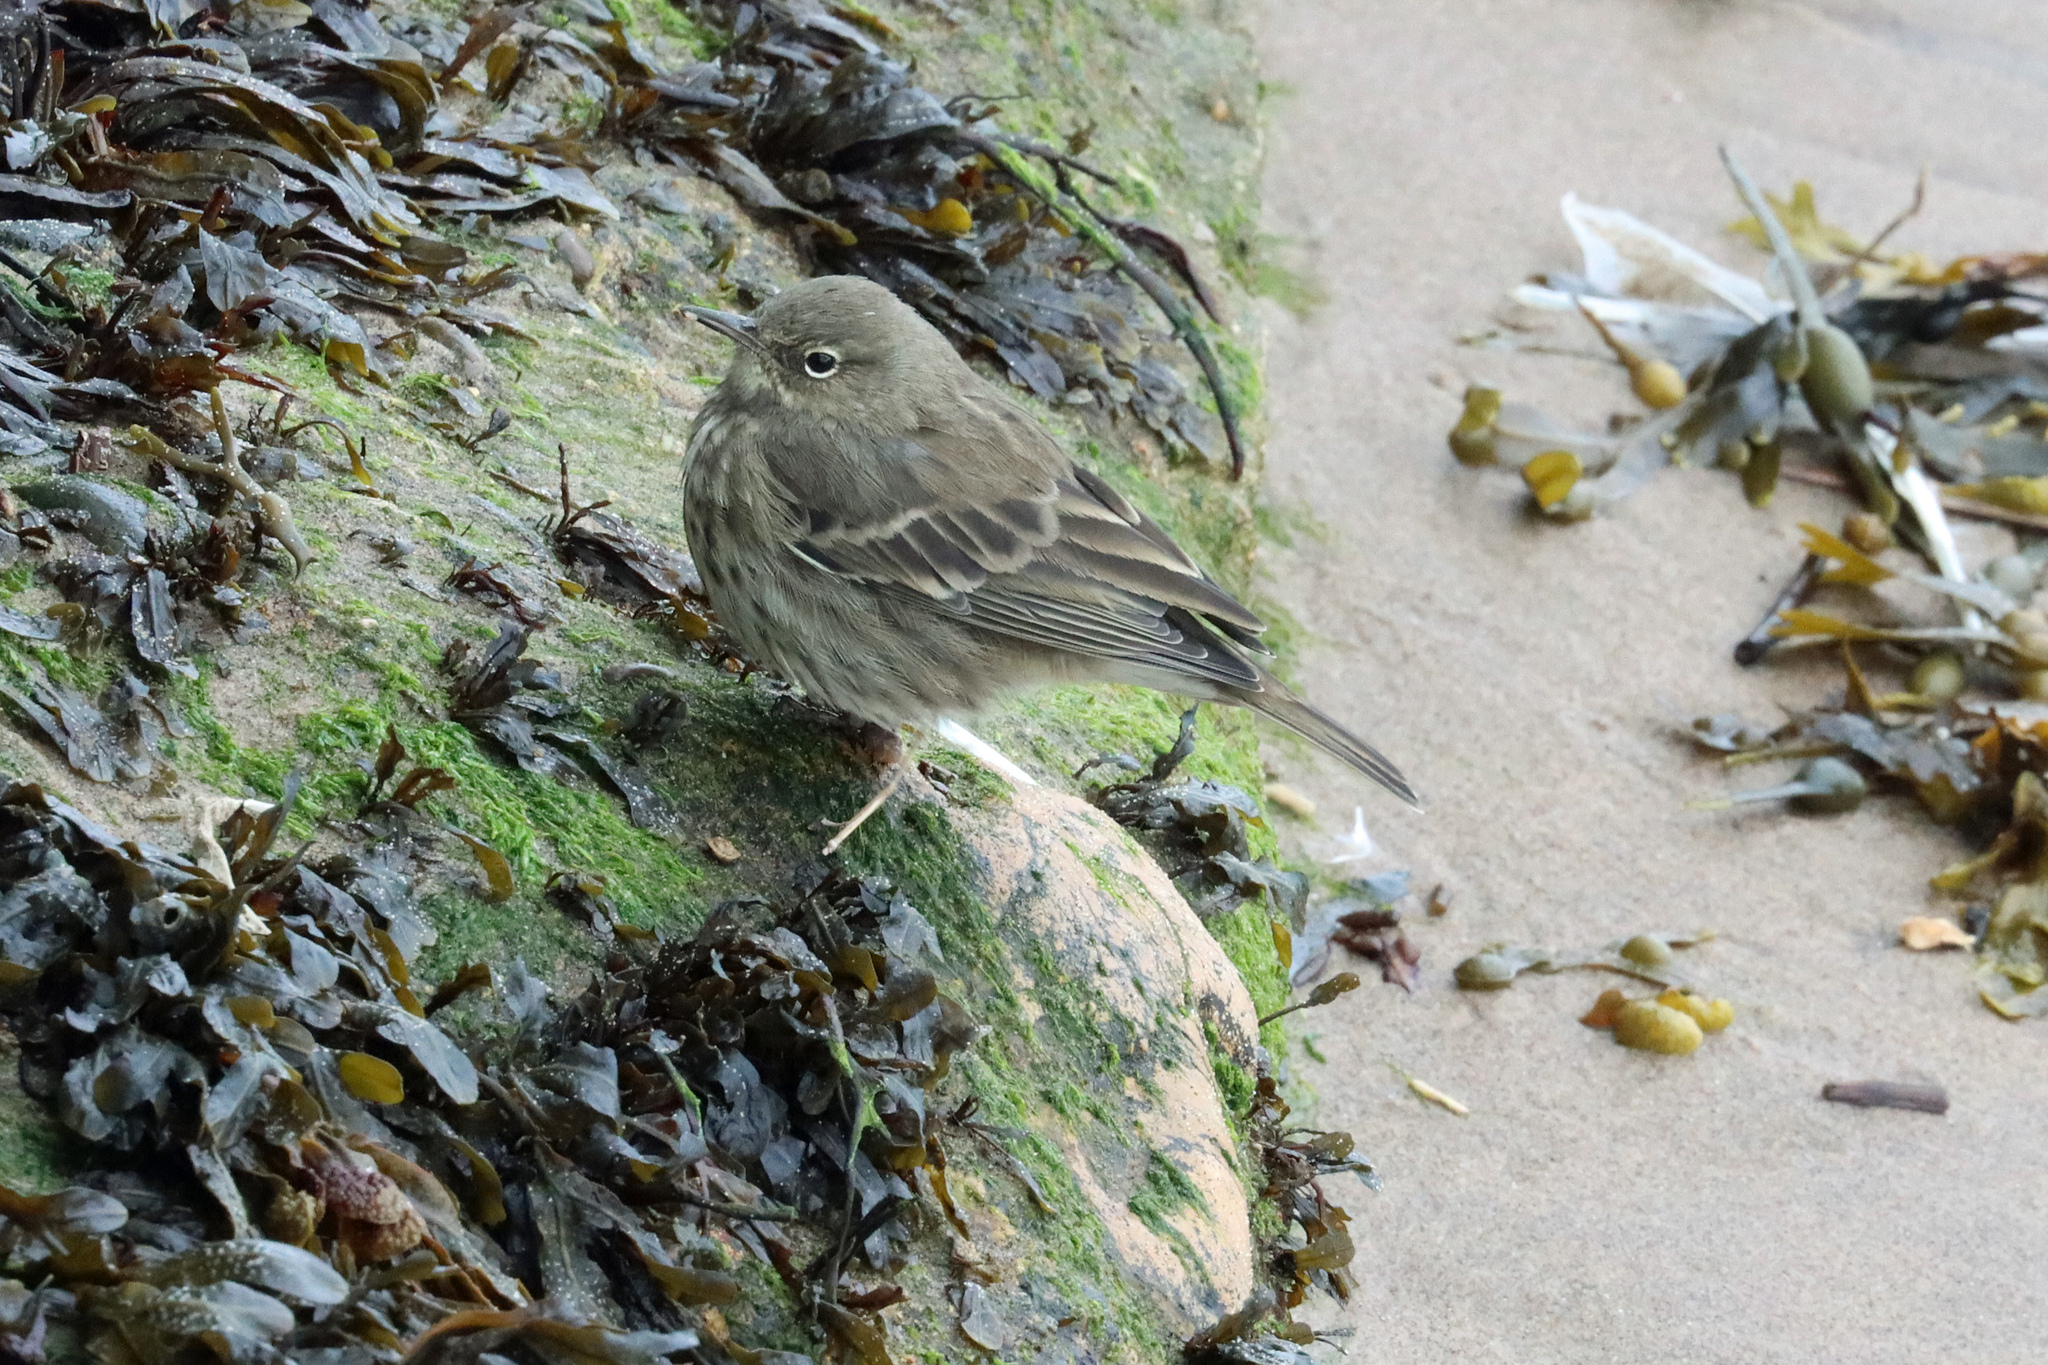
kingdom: Animalia
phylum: Chordata
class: Aves
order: Passeriformes
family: Motacillidae
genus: Anthus
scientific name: Anthus petrosus
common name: Eurasian rock pipit
